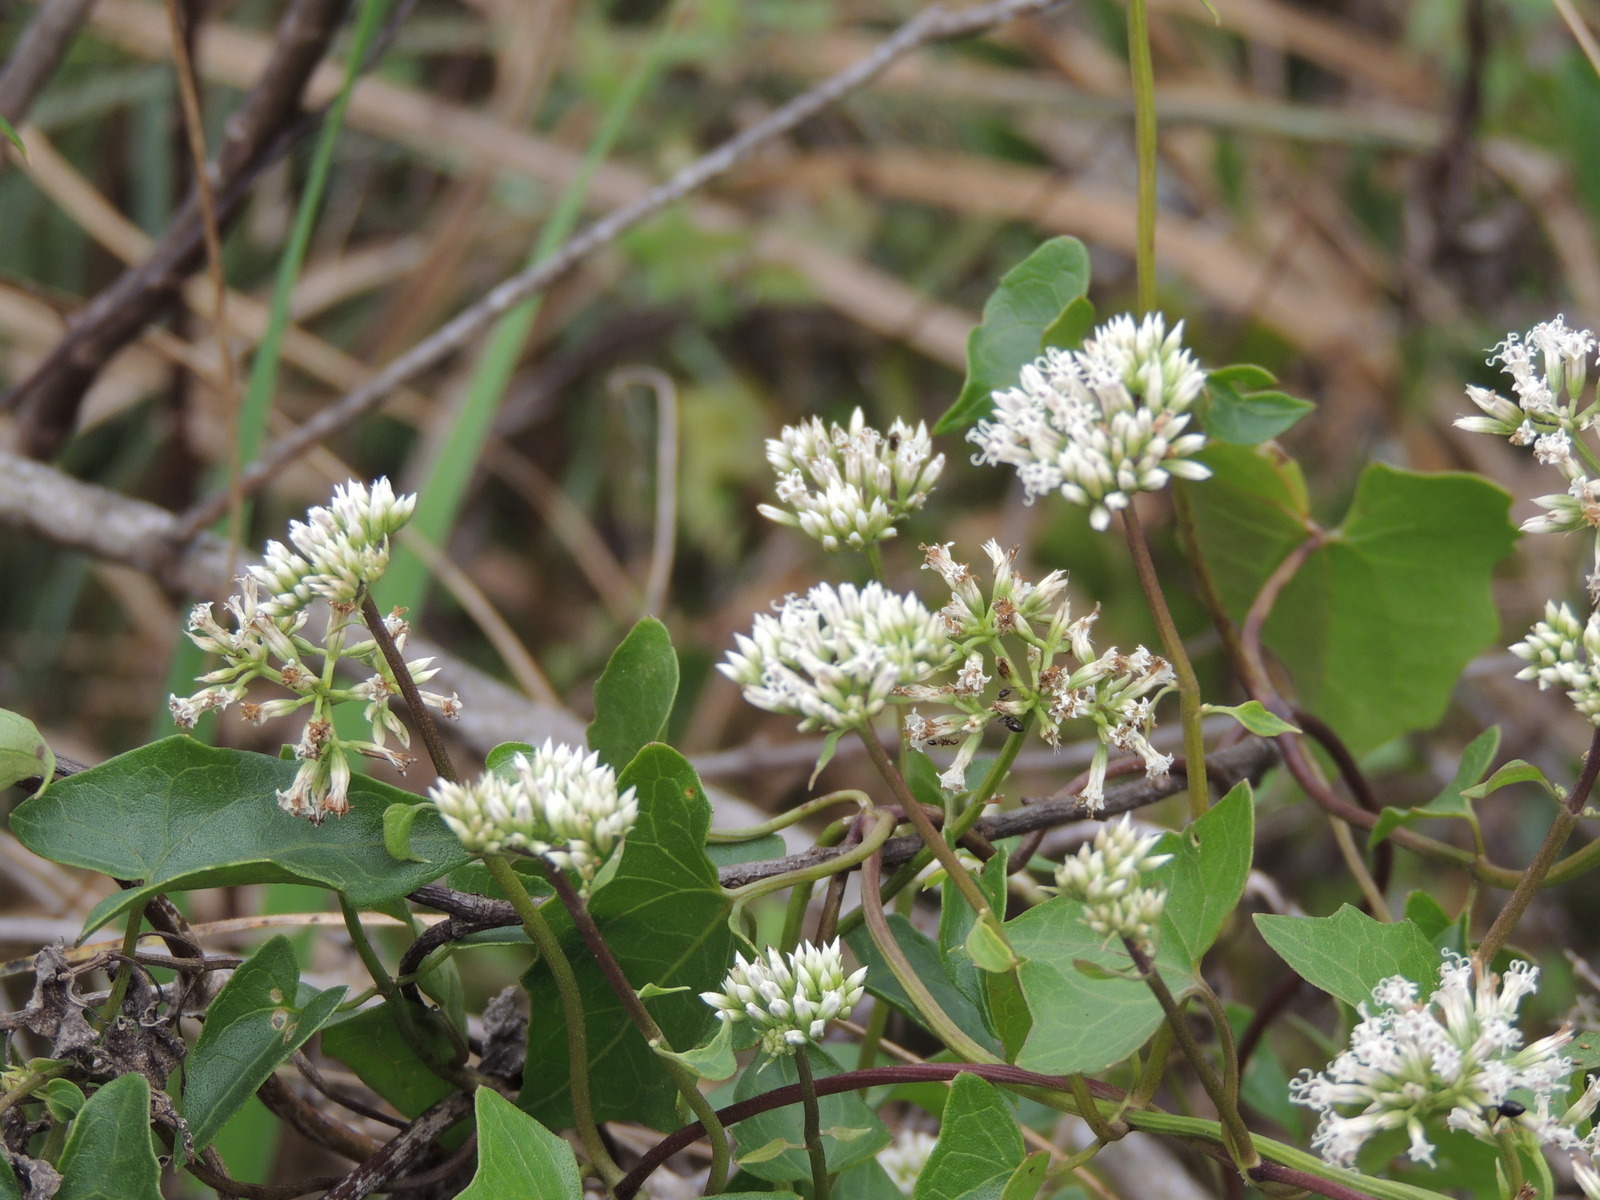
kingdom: Plantae
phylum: Tracheophyta
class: Magnoliopsida
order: Asterales
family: Asteraceae
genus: Mikania
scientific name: Mikania scandens
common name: Climbing hempvine
